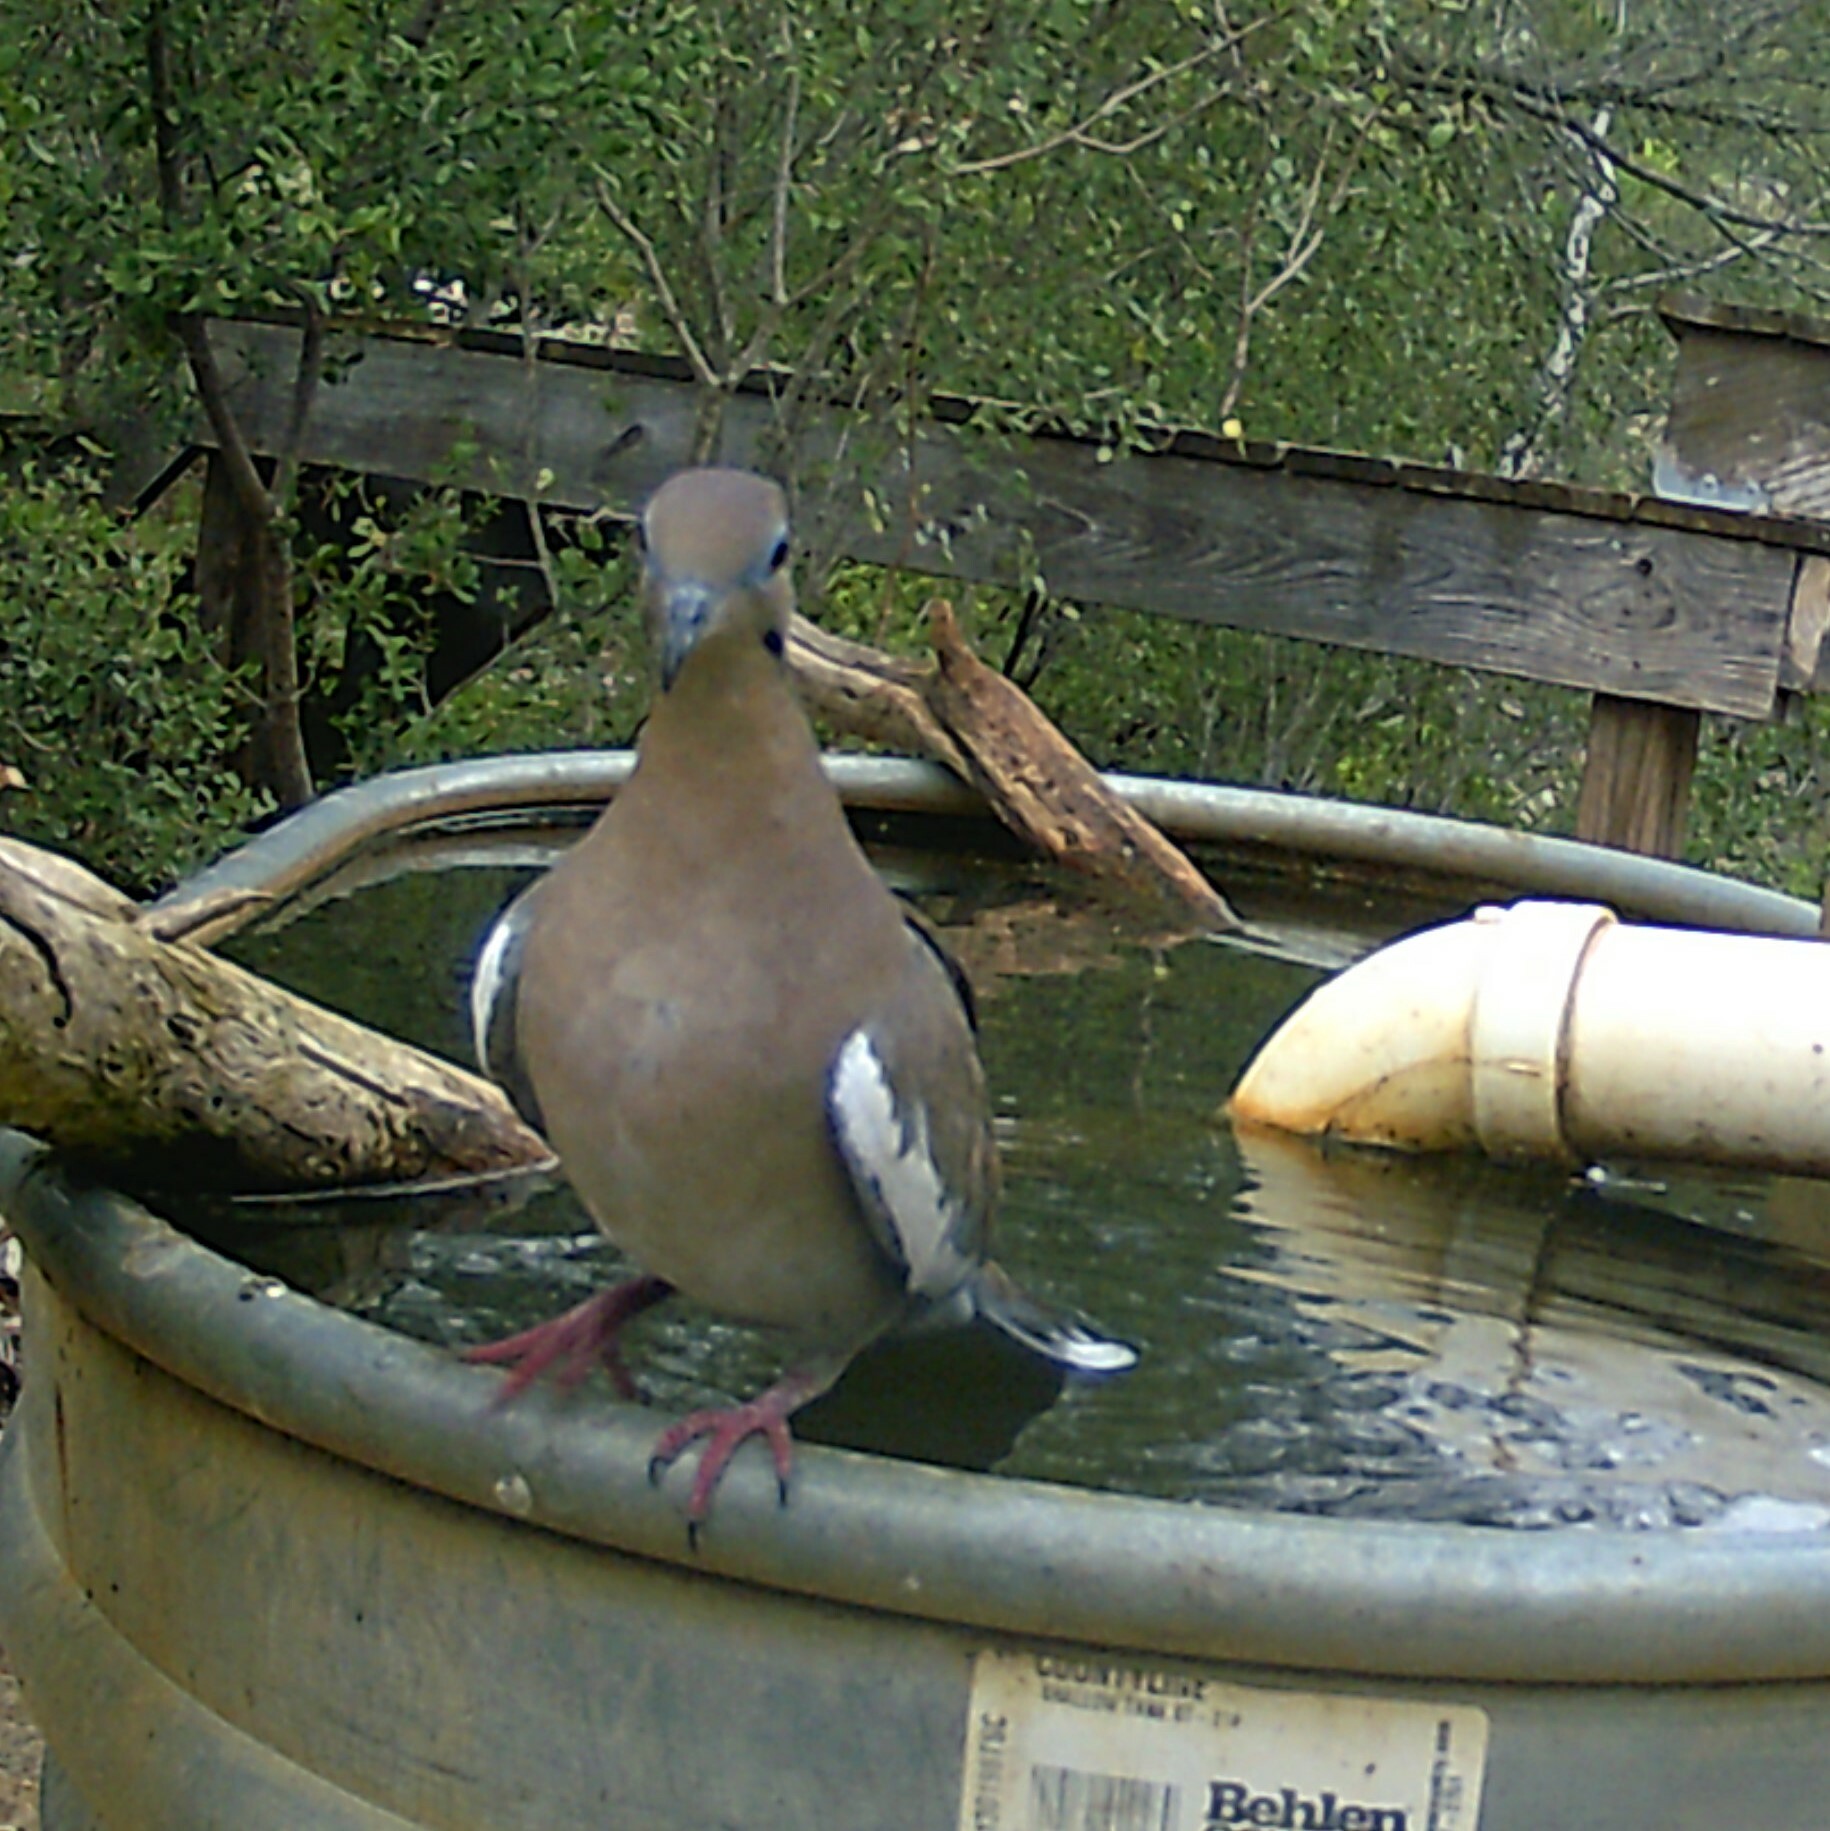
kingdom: Animalia
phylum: Chordata
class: Aves
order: Columbiformes
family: Columbidae
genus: Zenaida
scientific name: Zenaida asiatica
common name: White-winged dove
